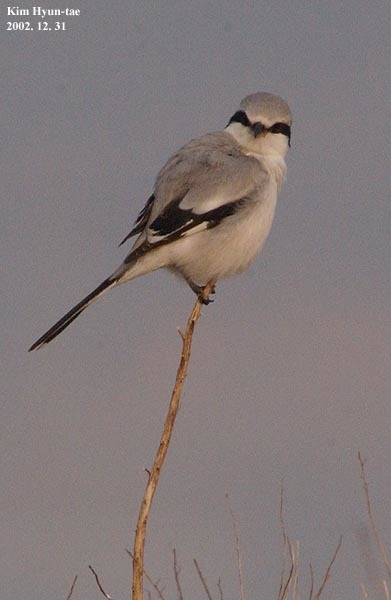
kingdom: Animalia
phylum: Chordata
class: Aves
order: Passeriformes
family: Laniidae
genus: Lanius
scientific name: Lanius sphenocercus
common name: Chinese grey shrike
